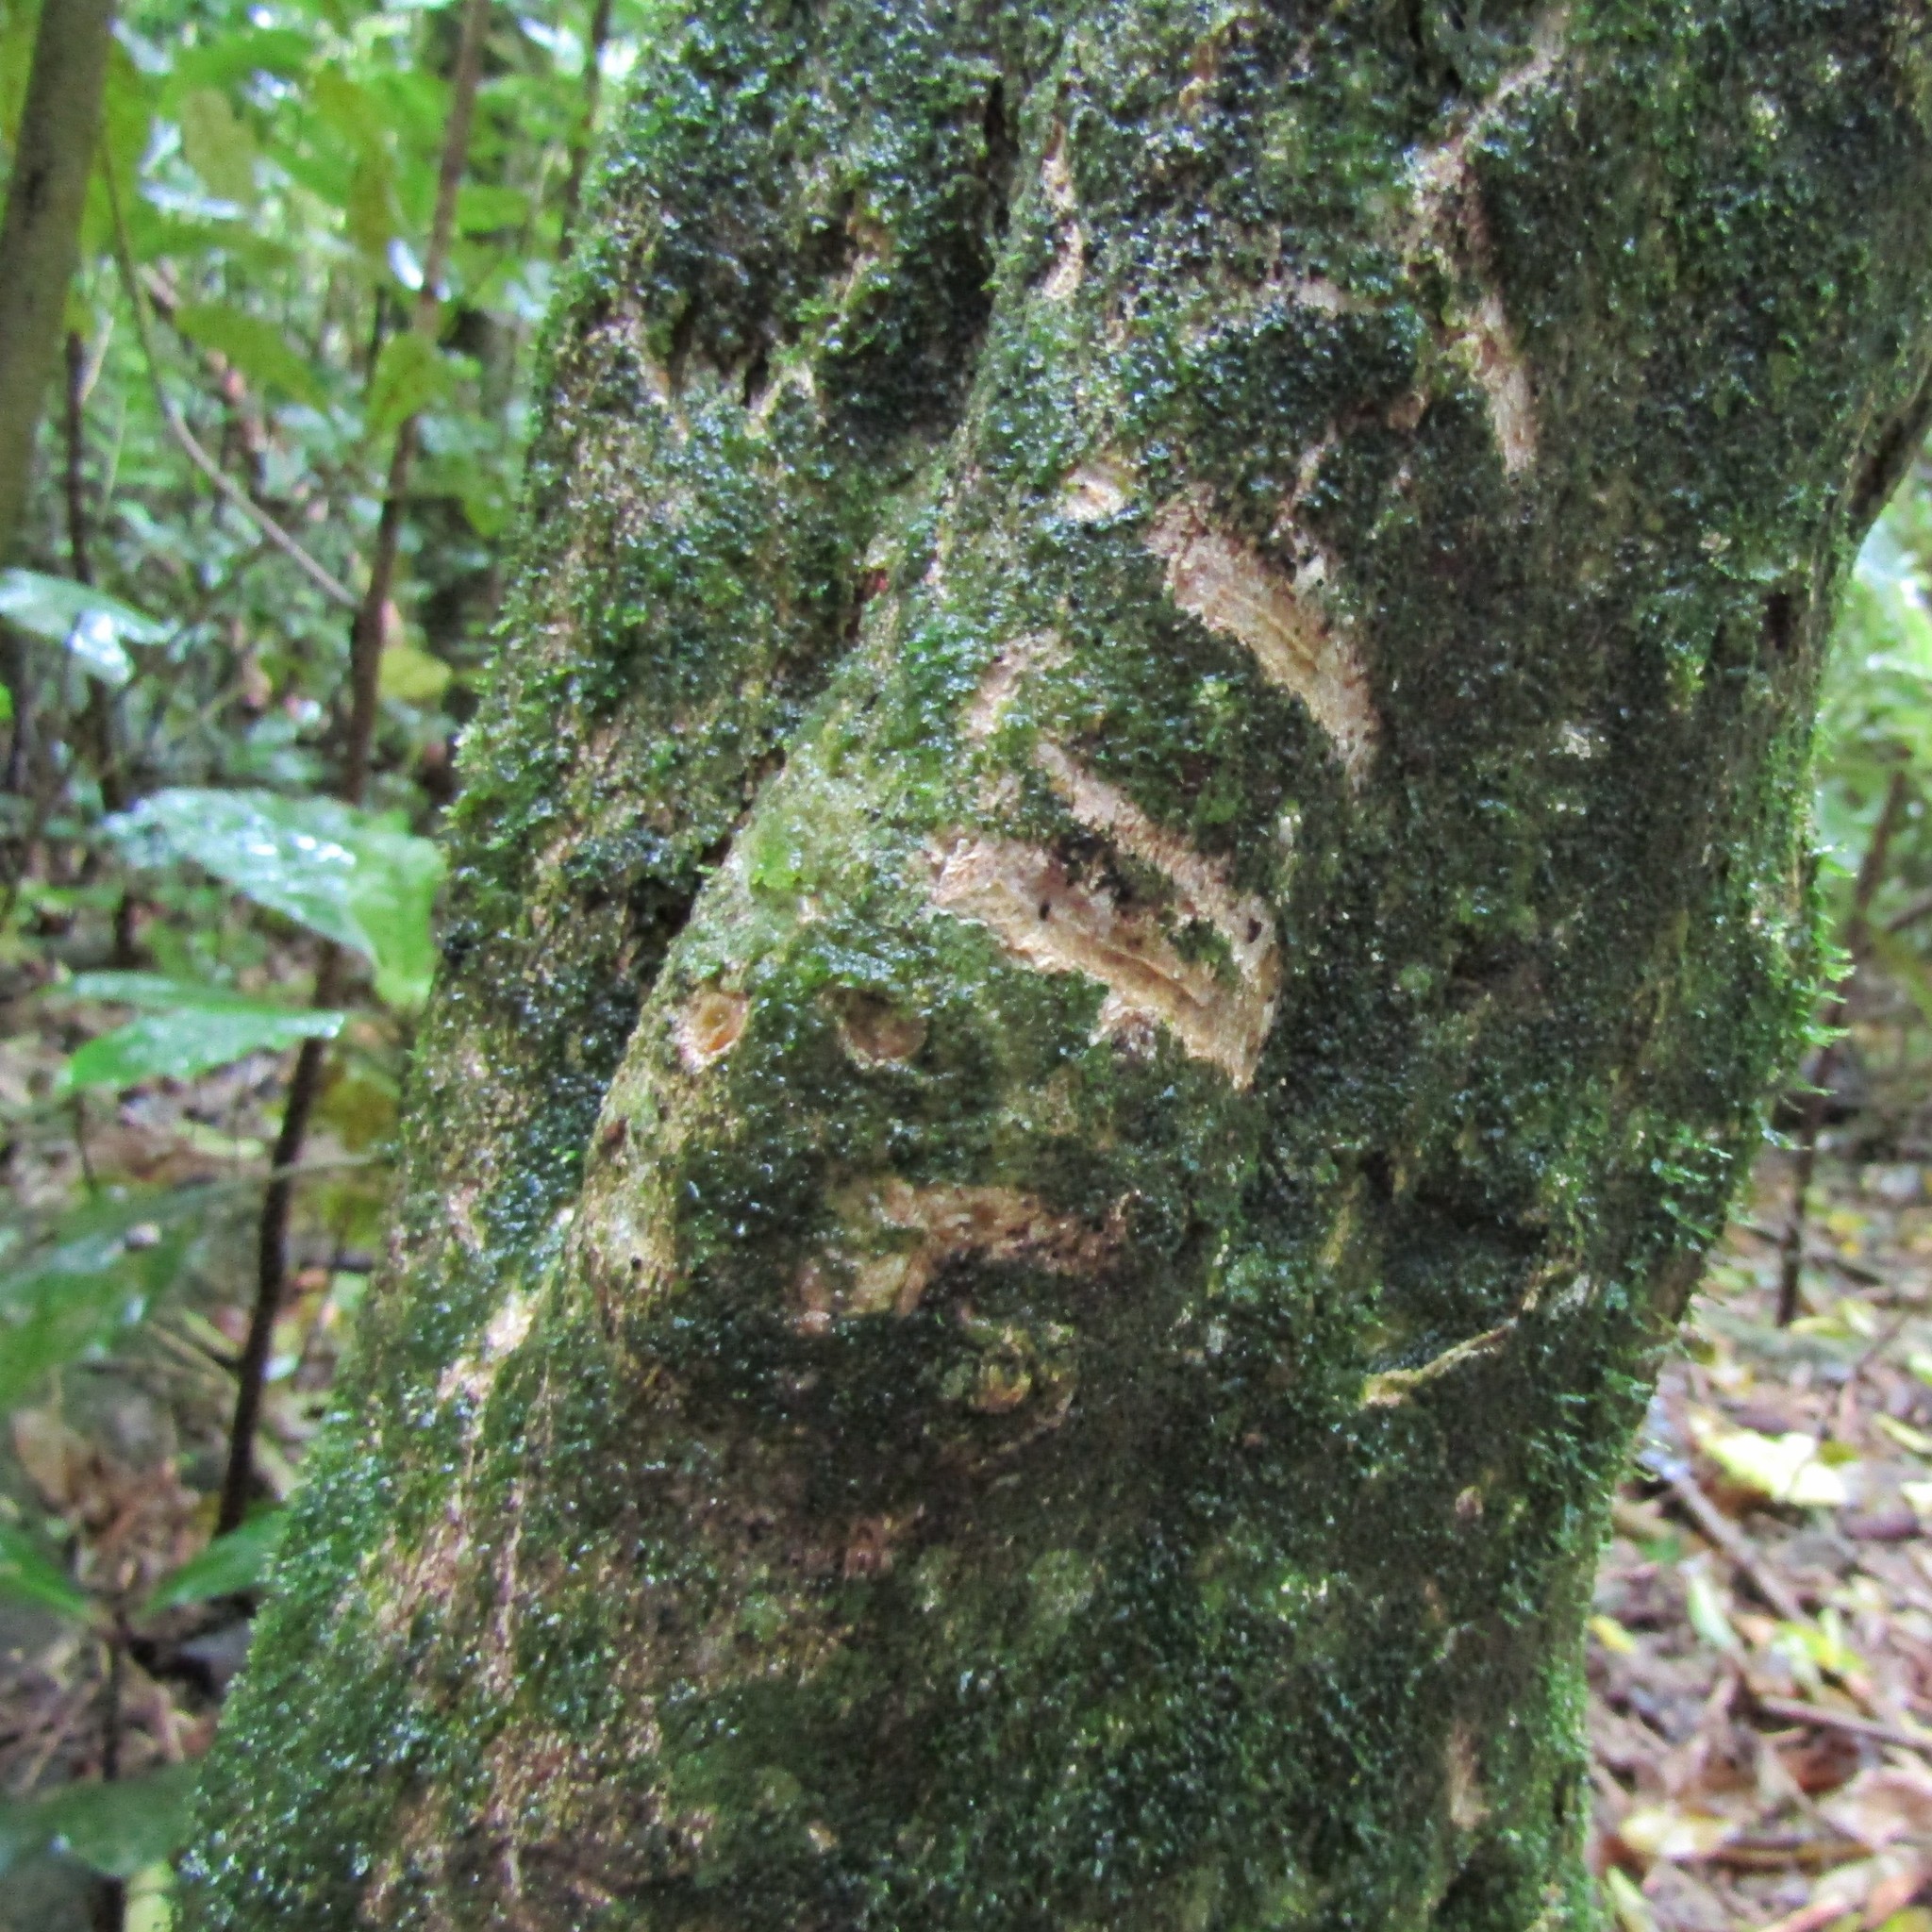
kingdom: Animalia
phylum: Chordata
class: Mammalia
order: Diprotodontia
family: Phalangeridae
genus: Trichosurus
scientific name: Trichosurus vulpecula
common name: Common brushtail
